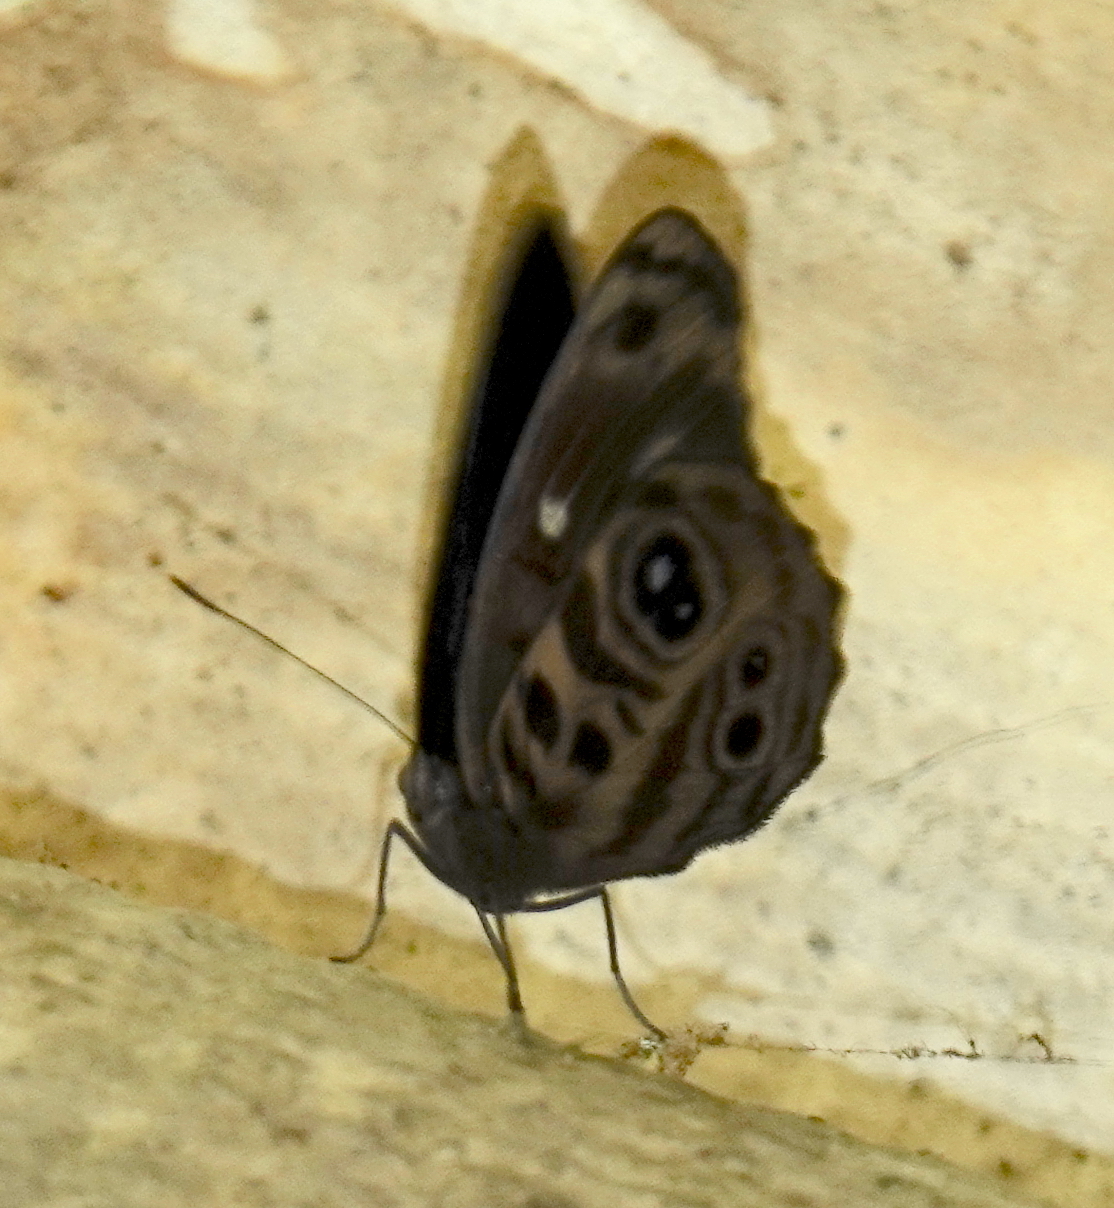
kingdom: Animalia
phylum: Arthropoda
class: Insecta
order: Lepidoptera
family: Nymphalidae
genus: Eunica
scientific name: Eunica norica
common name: Norica purplewing
